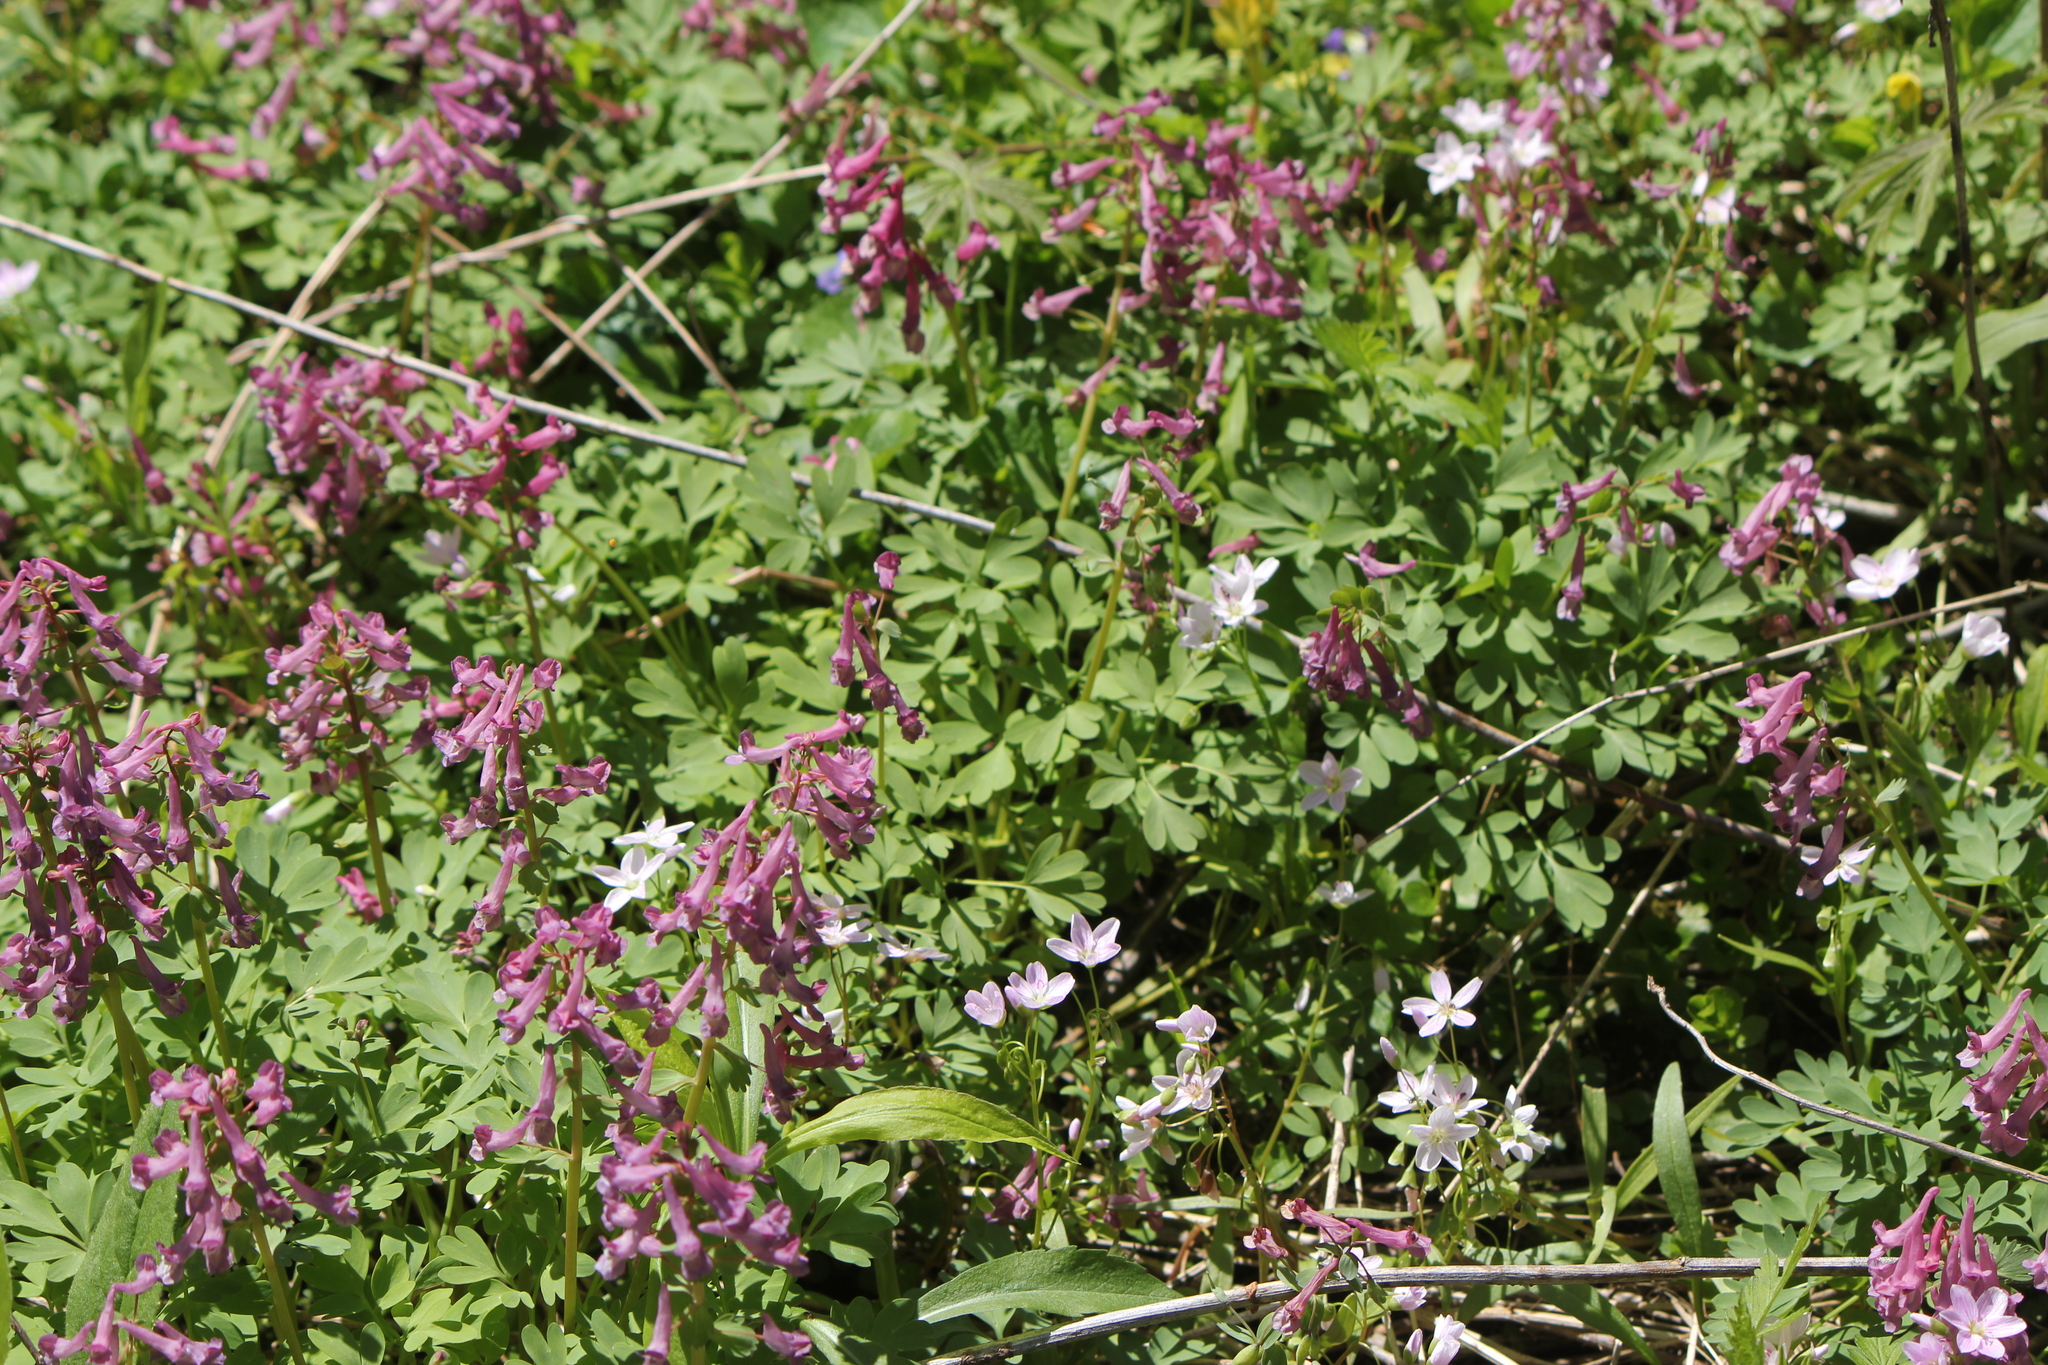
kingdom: Plantae
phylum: Tracheophyta
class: Magnoliopsida
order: Ranunculales
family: Papaveraceae
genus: Corydalis
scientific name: Corydalis solida
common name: Bird-in-a-bush
